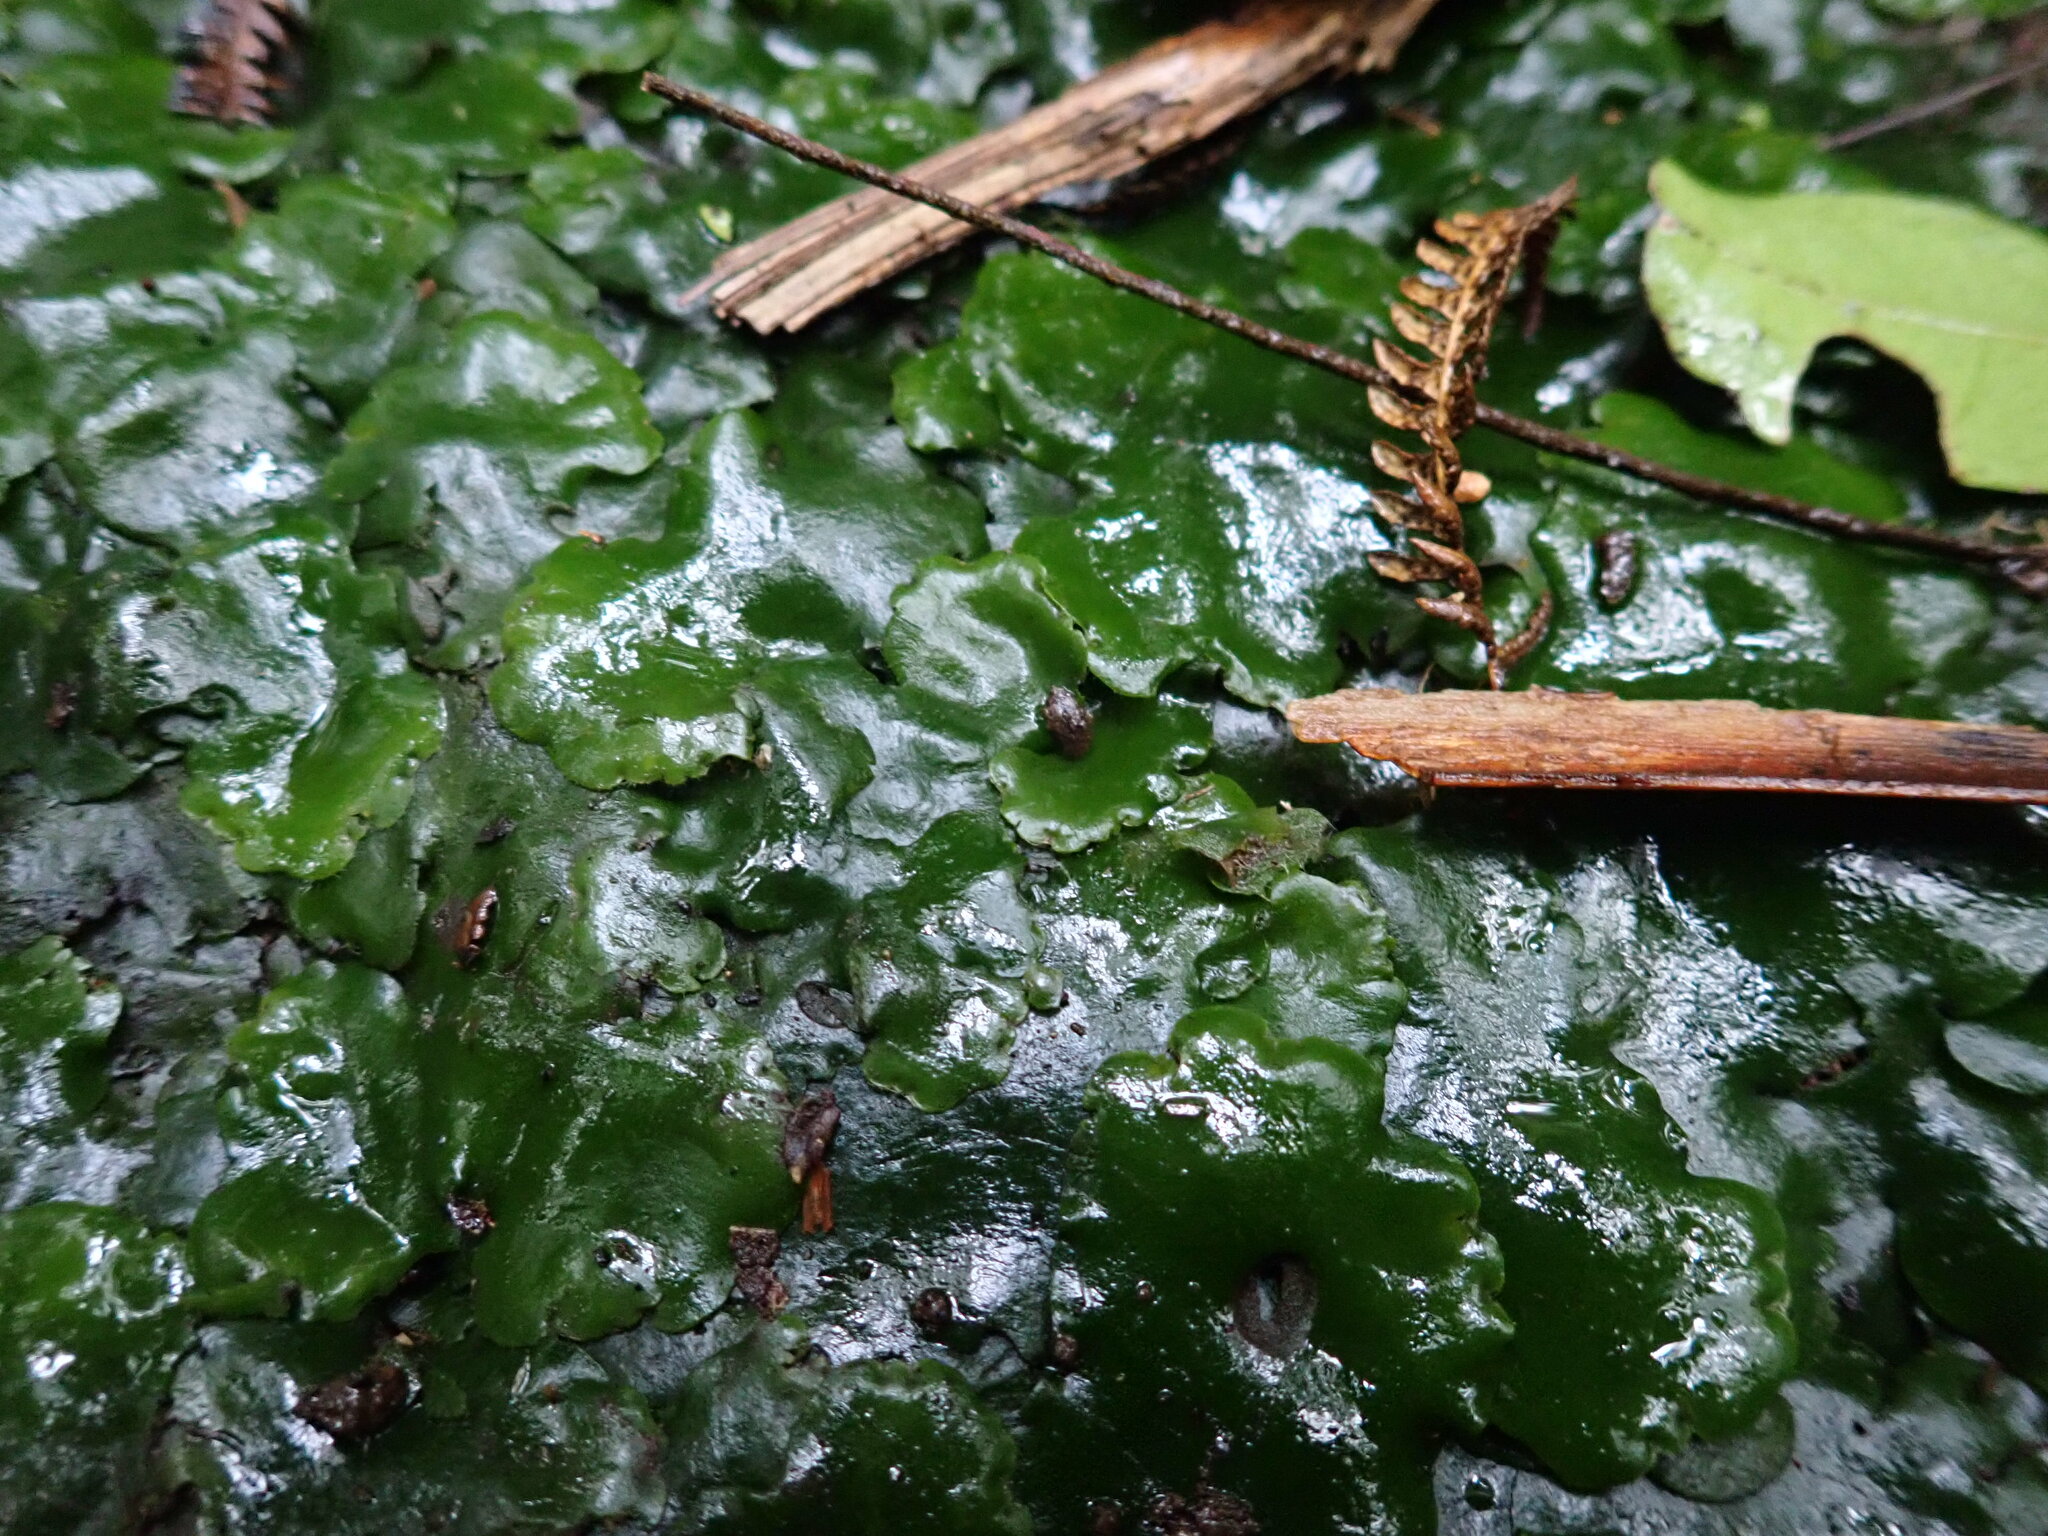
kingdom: Plantae
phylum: Marchantiophyta
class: Marchantiopsida
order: Marchantiales
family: Monocleaceae
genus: Monoclea
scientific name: Monoclea forsteri
